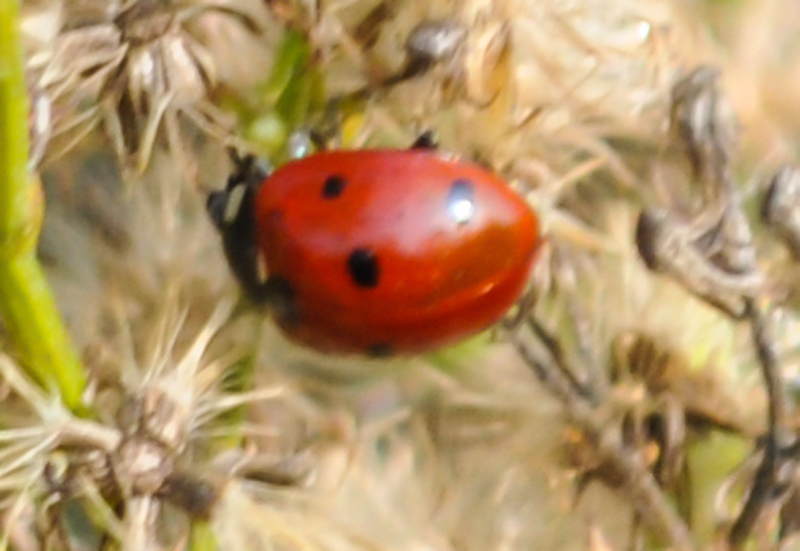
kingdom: Animalia
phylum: Arthropoda
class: Insecta
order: Coleoptera
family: Coccinellidae
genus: Coccinella
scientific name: Coccinella septempunctata
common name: Sevenspotted lady beetle
